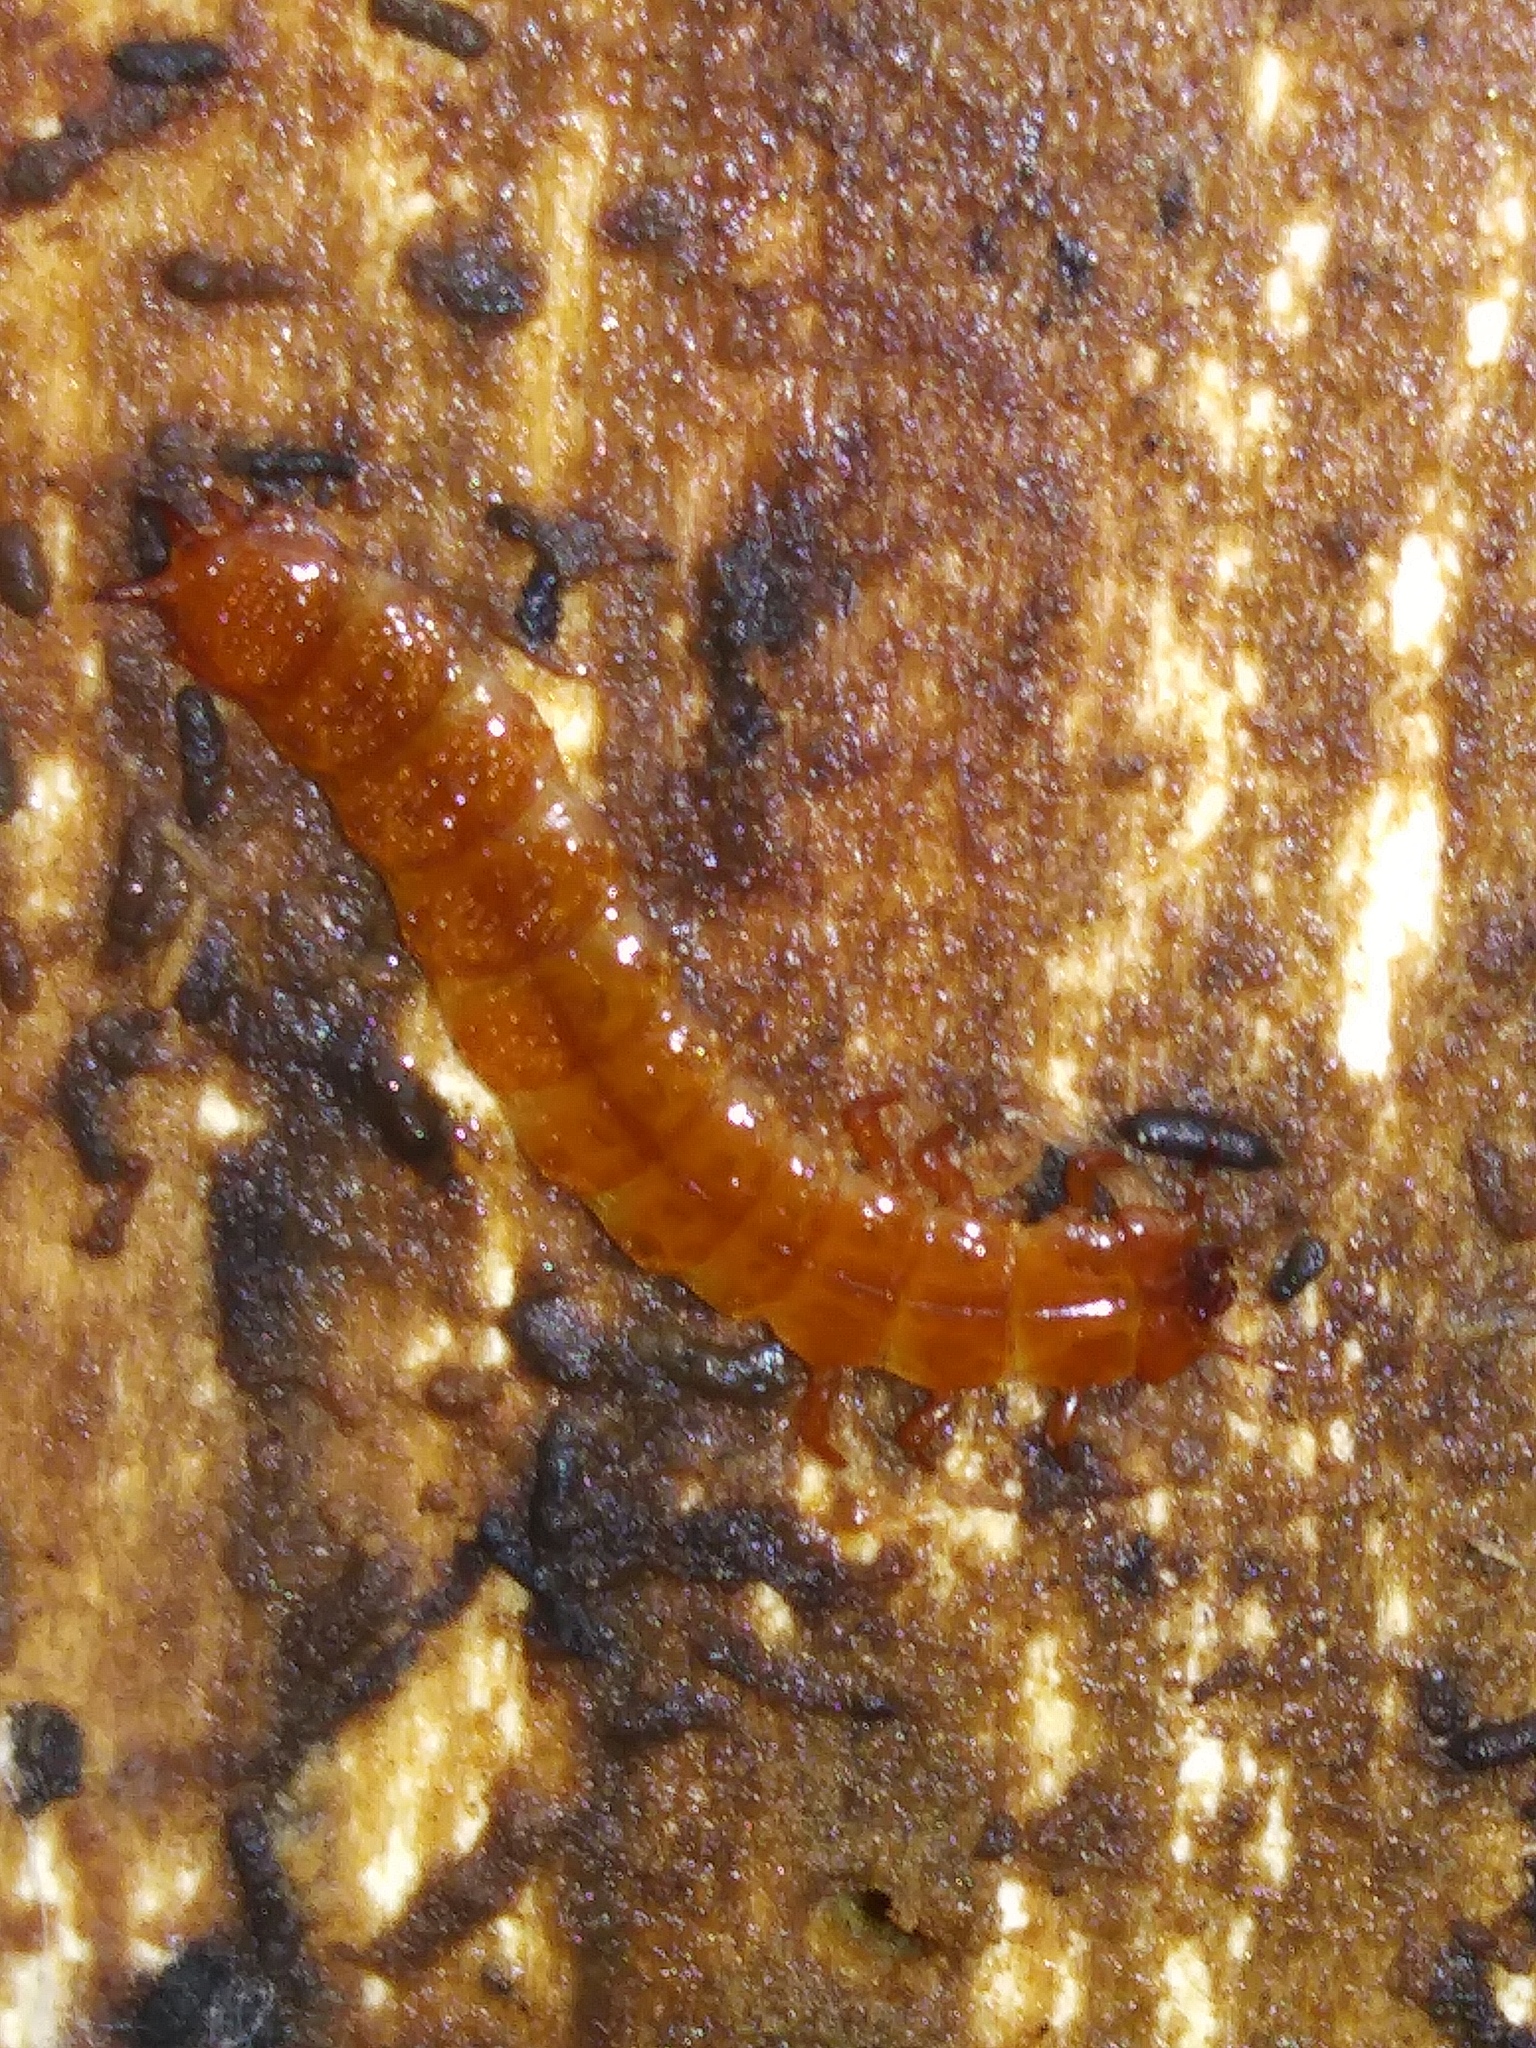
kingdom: Animalia
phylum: Arthropoda
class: Insecta
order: Coleoptera
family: Cucujidae
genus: Cucujus
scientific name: Cucujus clavipes
